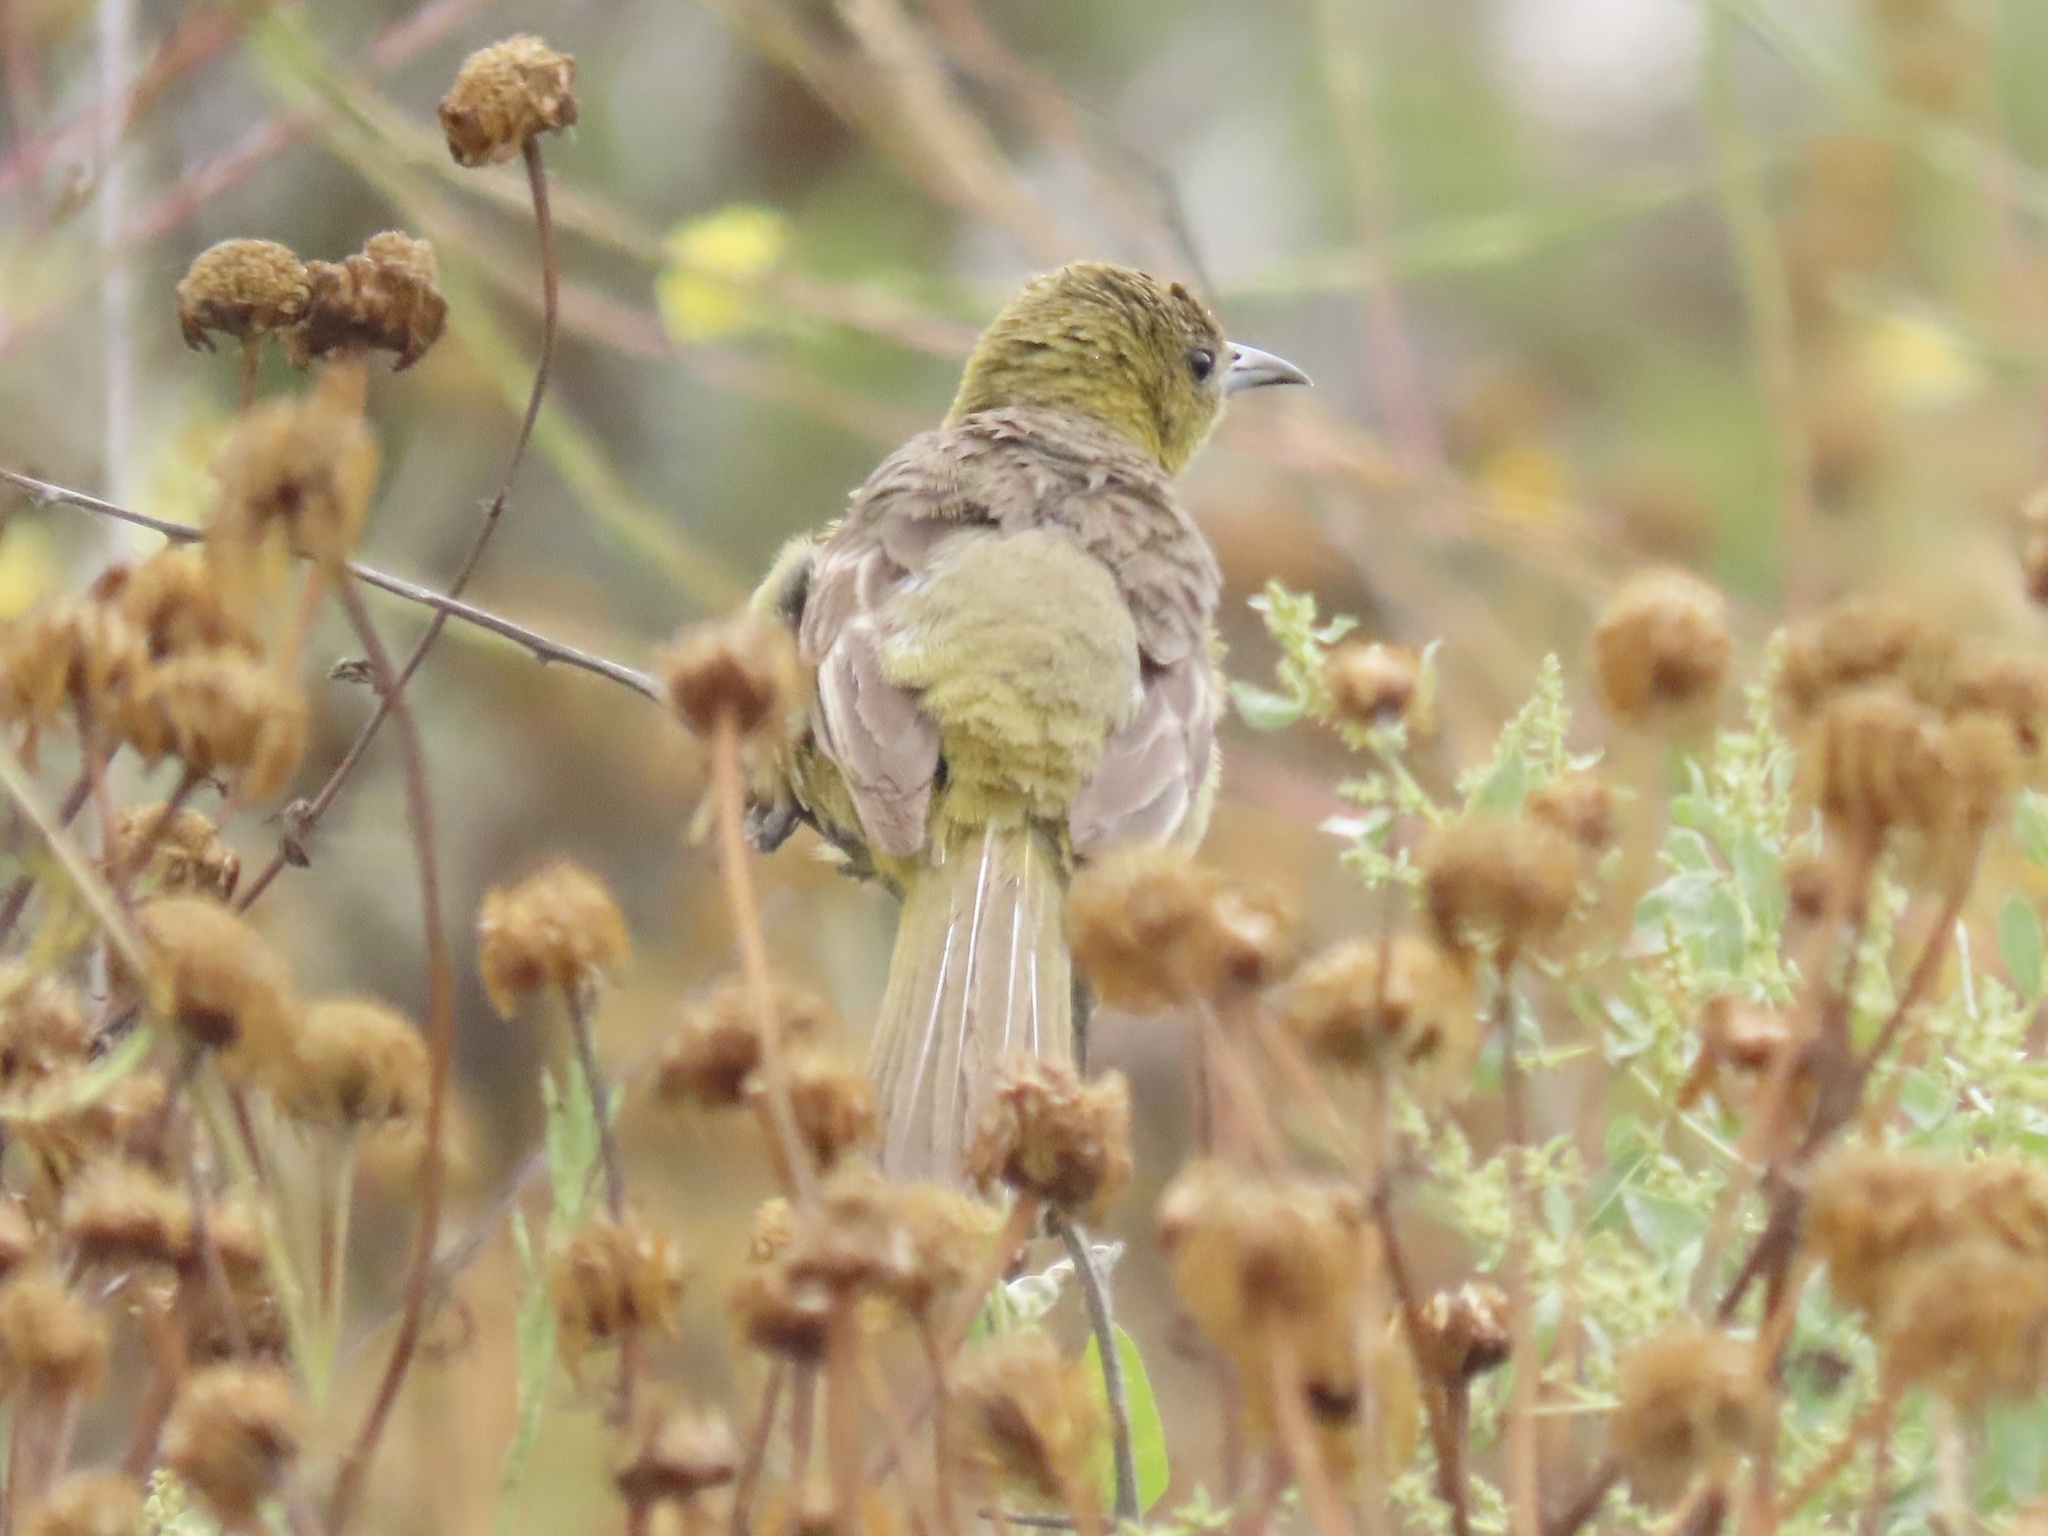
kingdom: Animalia
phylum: Chordata
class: Aves
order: Passeriformes
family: Icteridae
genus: Icterus
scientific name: Icterus cucullatus
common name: Hooded oriole
